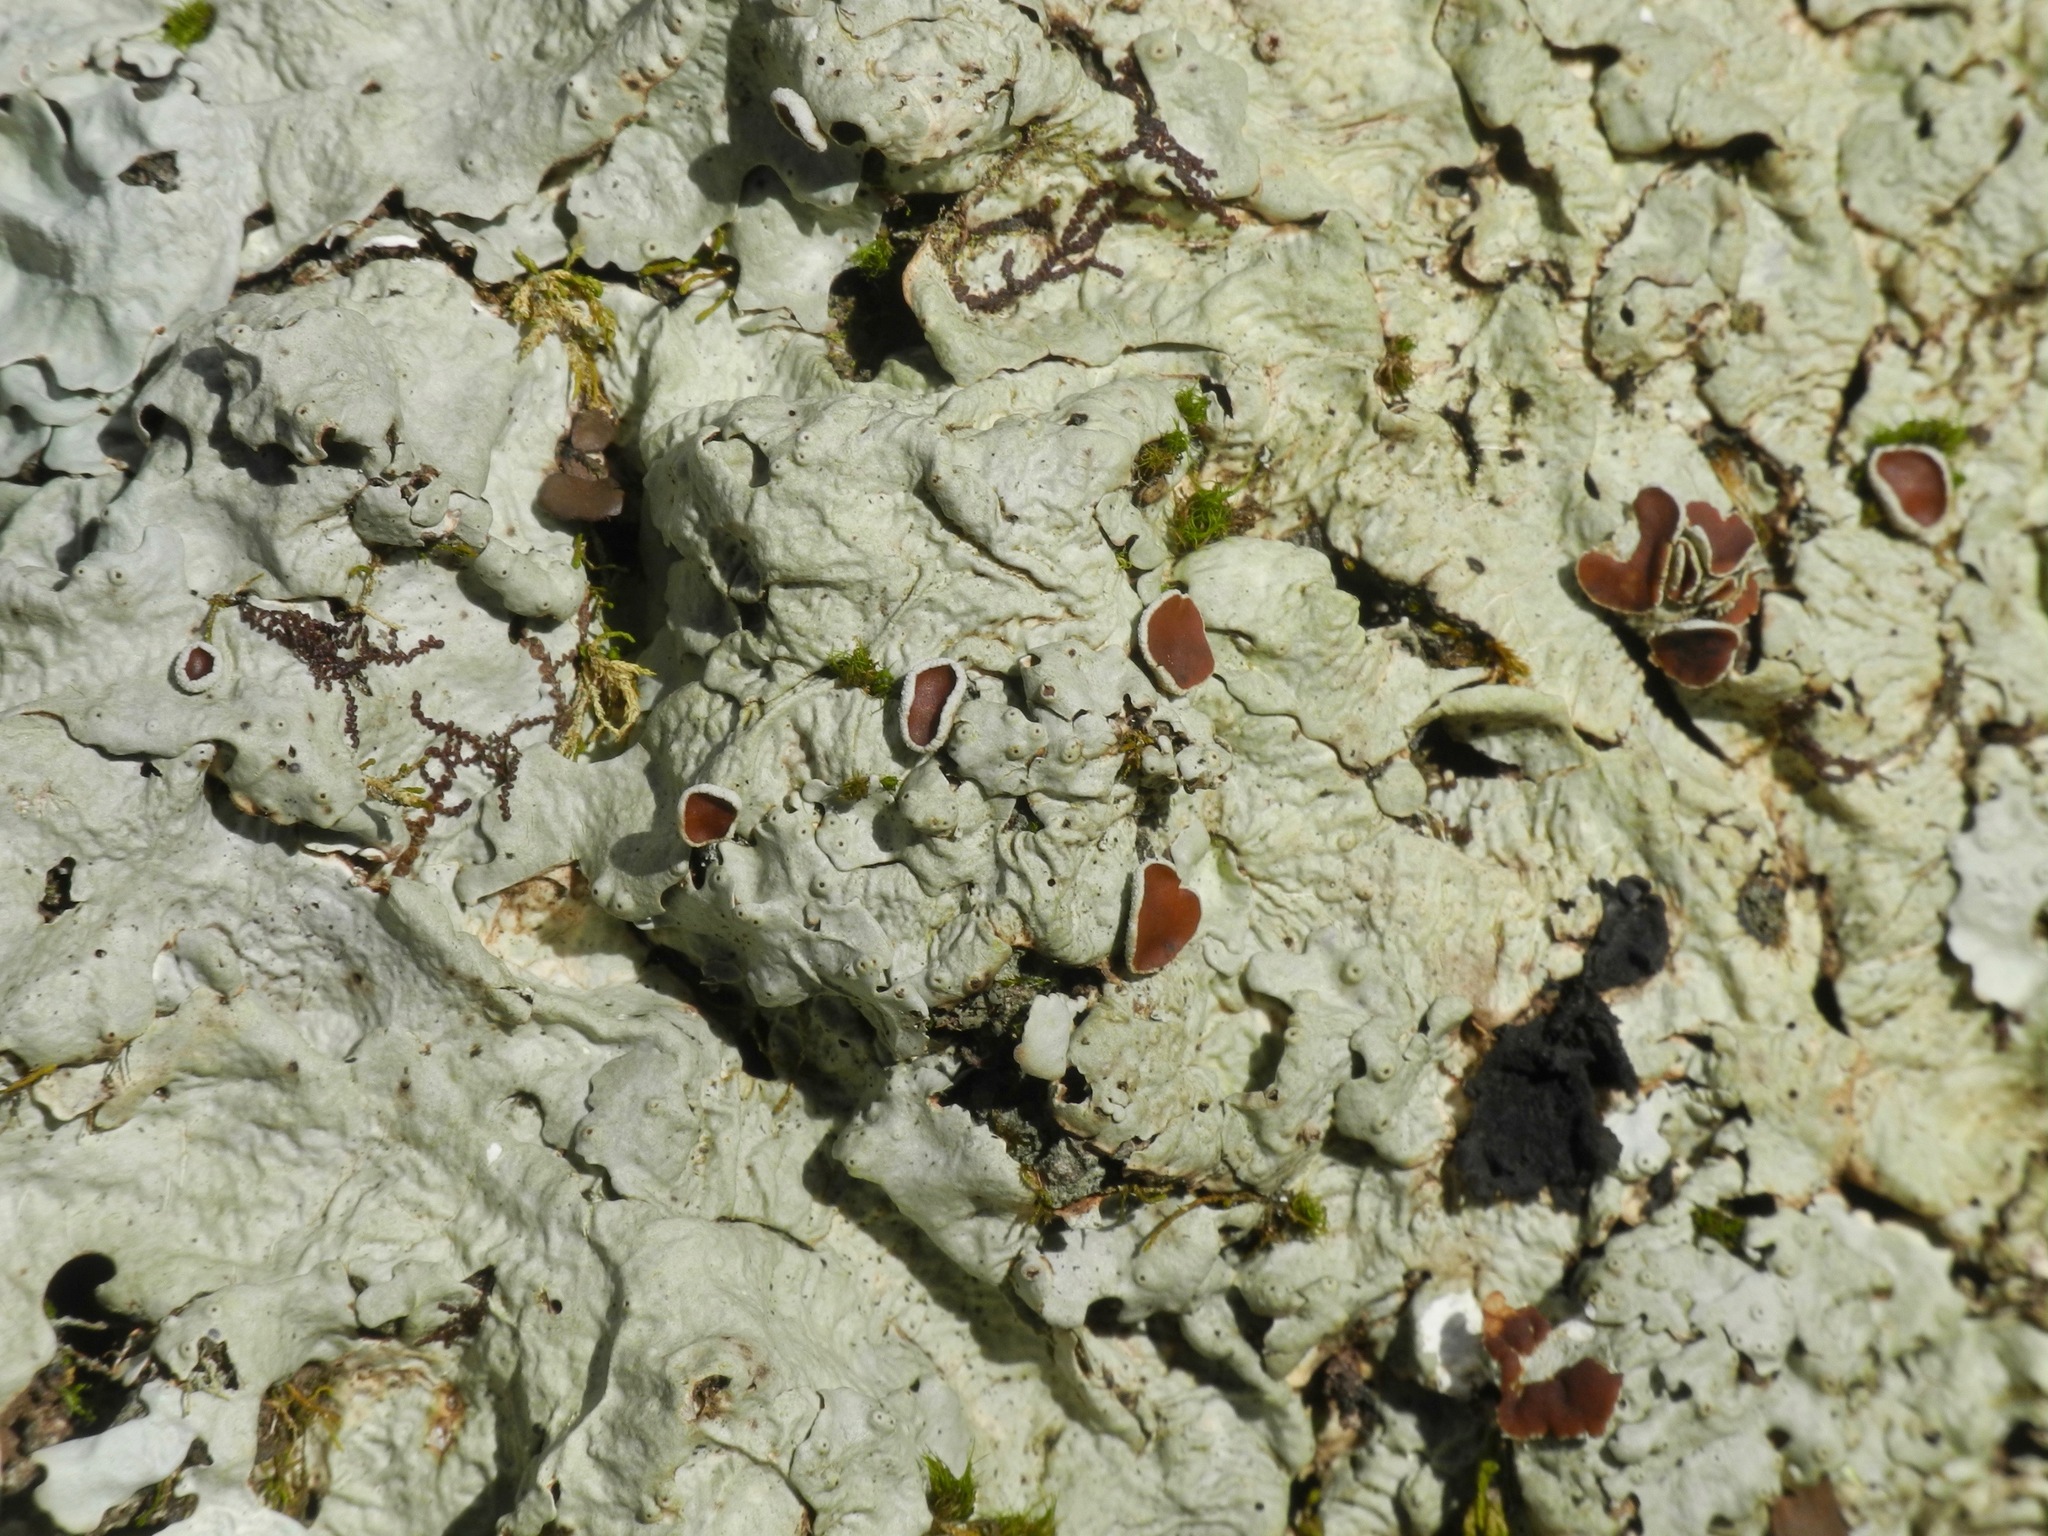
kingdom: Fungi
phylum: Ascomycota
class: Lecanoromycetes
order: Peltigerales
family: Lobariaceae
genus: Ricasolia
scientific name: Ricasolia quercizans
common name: Smooth lungwort
